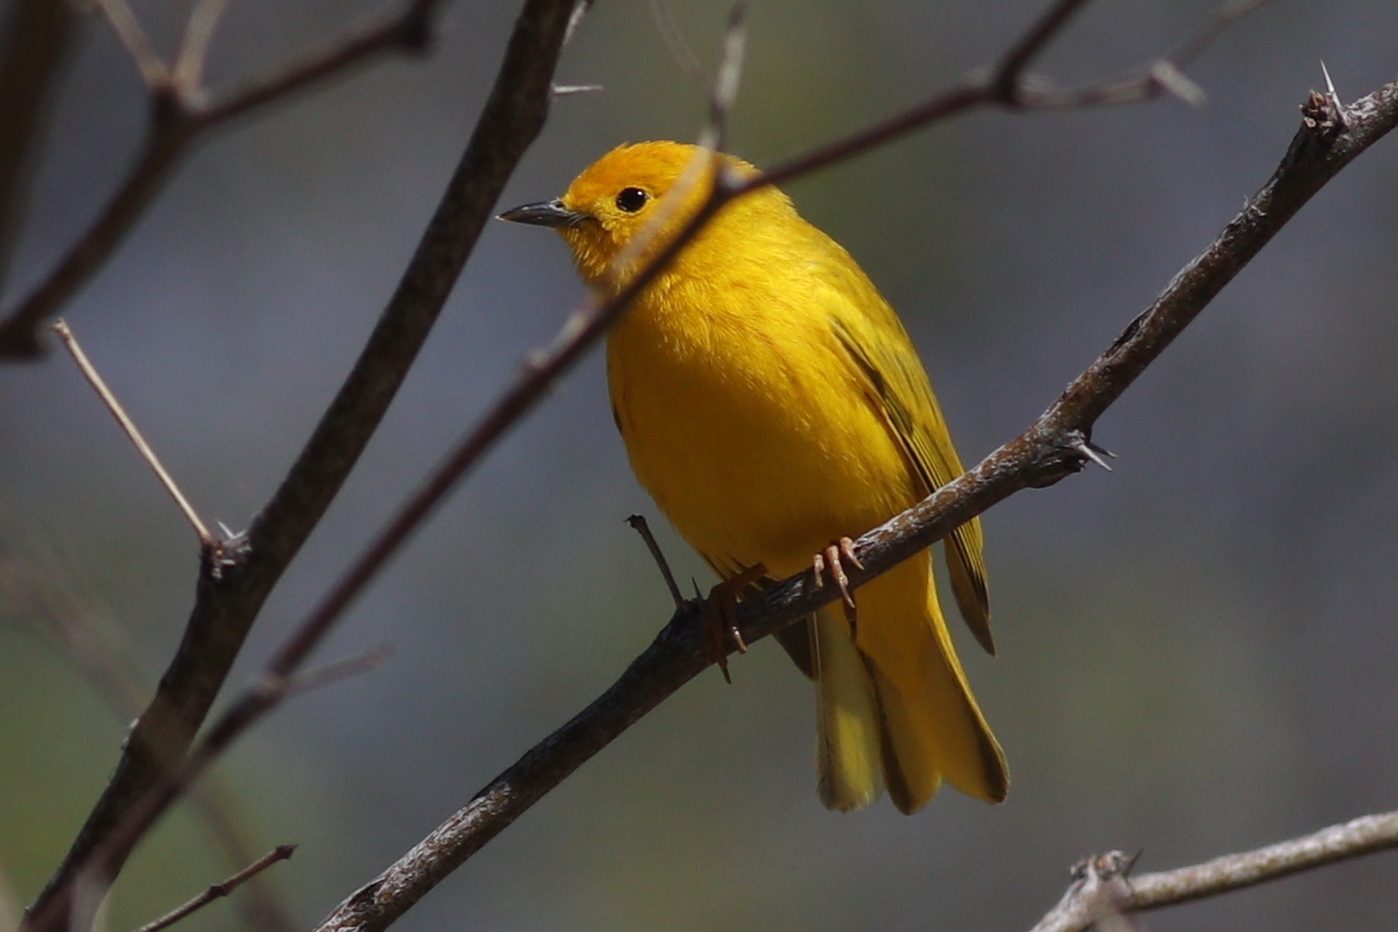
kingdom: Animalia
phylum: Chordata
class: Aves
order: Passeriformes
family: Parulidae
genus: Setophaga
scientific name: Setophaga petechia
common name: Yellow warbler
